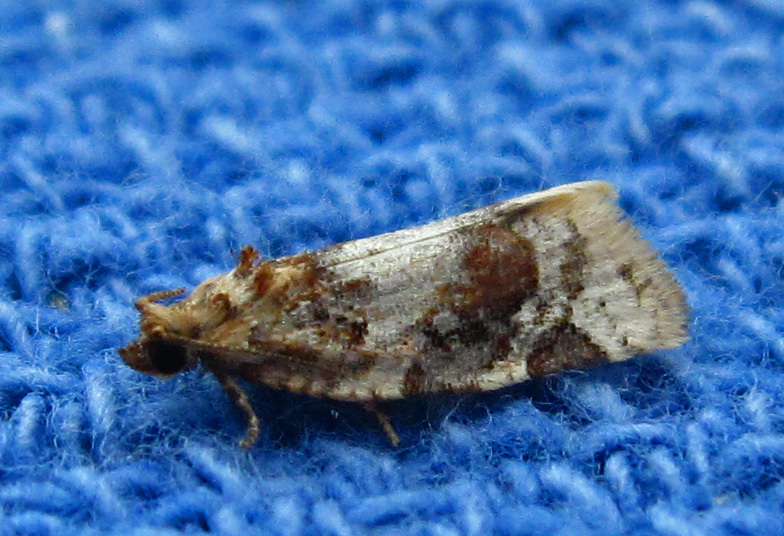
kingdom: Animalia
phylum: Arthropoda
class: Insecta
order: Lepidoptera
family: Tortricidae
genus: Argyrotaenia
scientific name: Argyrotaenia velutinana
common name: Red-banded leafroller moth
